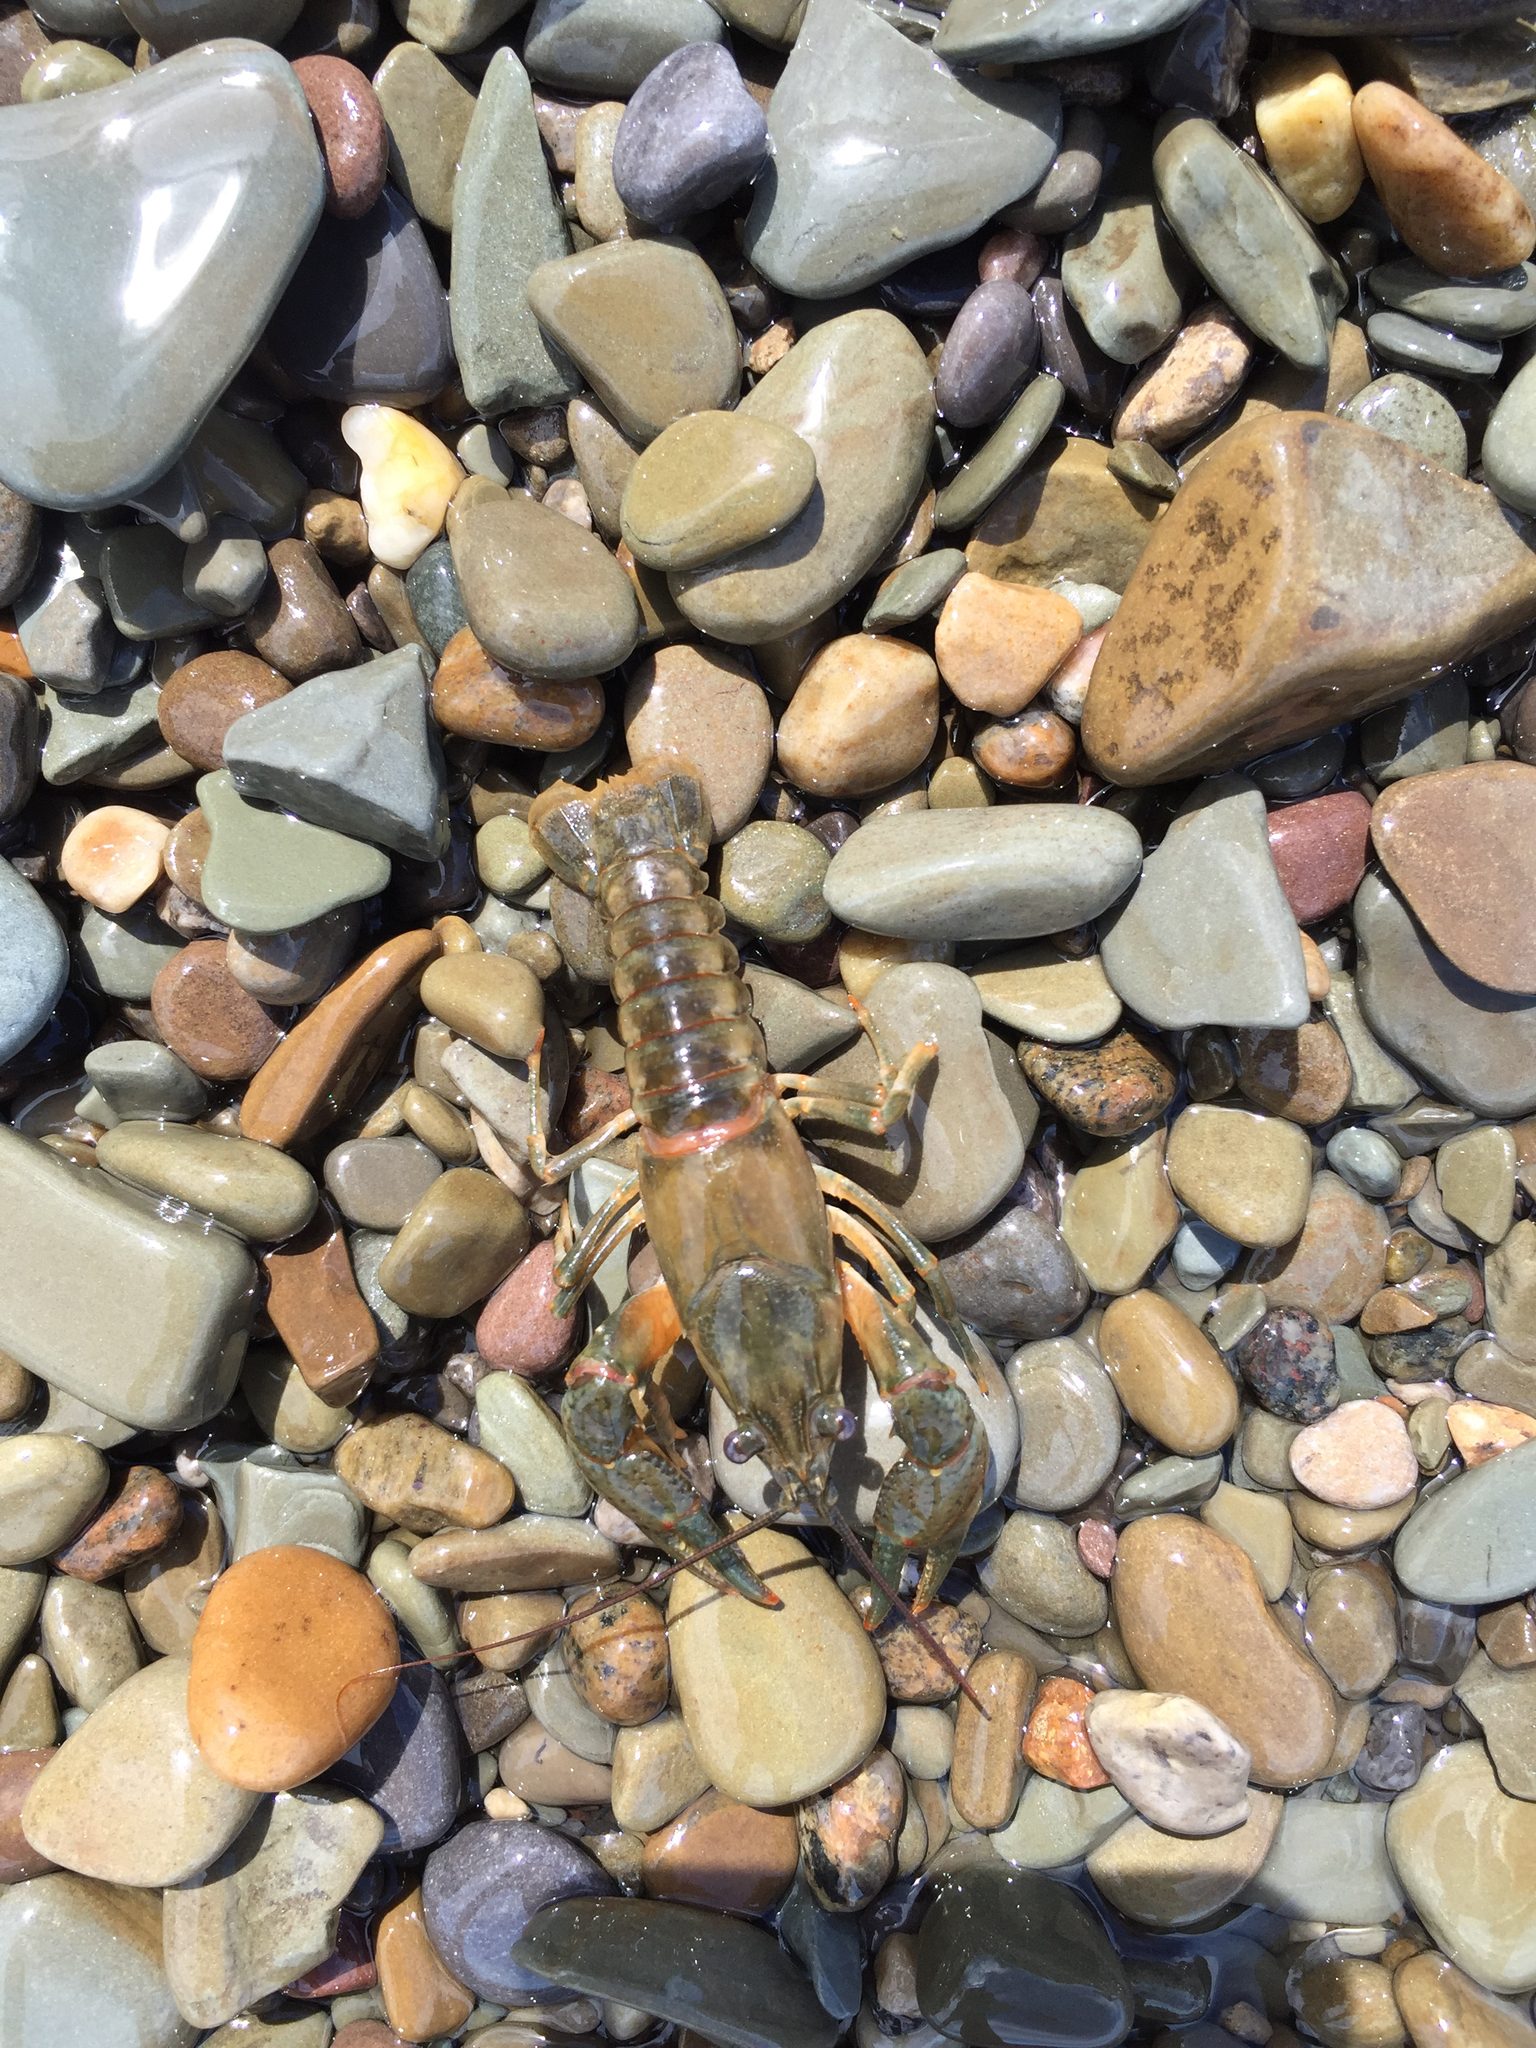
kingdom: Animalia
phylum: Arthropoda
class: Malacostraca
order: Decapoda
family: Cambaridae
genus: Faxonius
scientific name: Faxonius propinquus
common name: Northern clearwater crayfish
